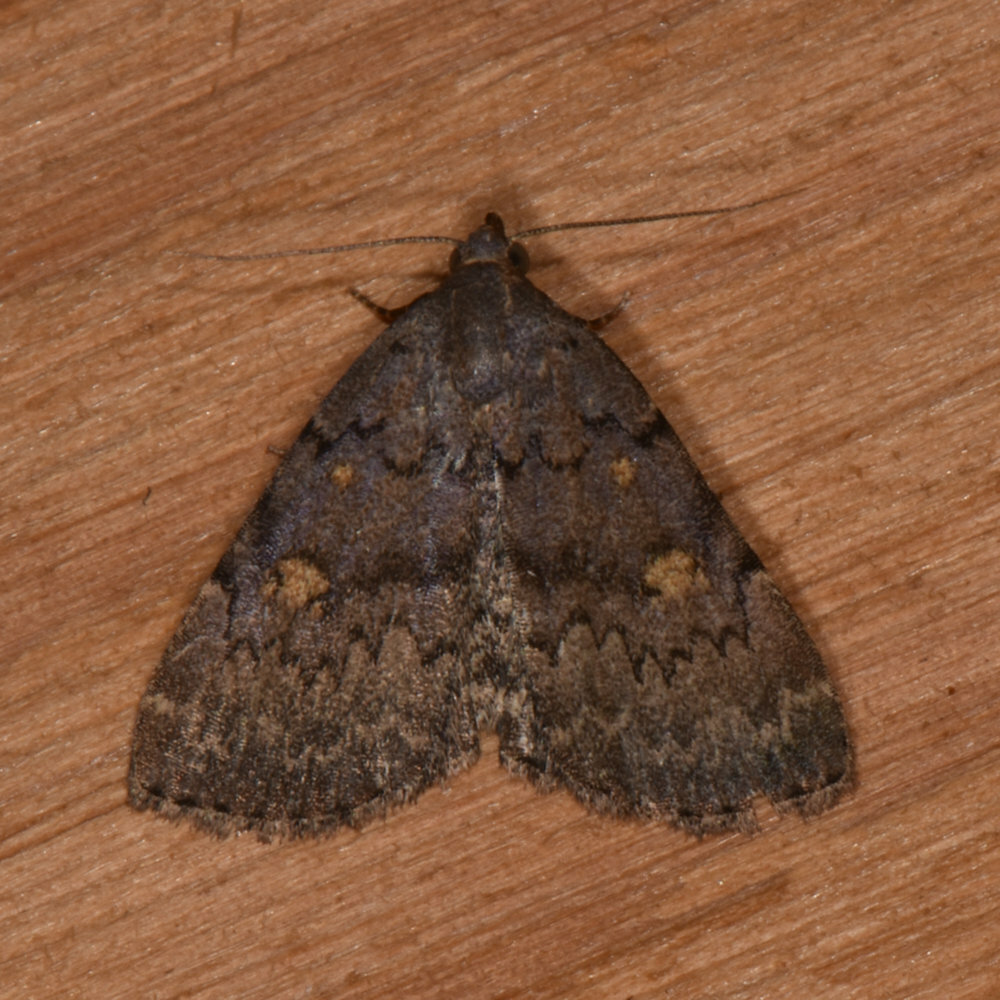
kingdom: Animalia
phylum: Arthropoda
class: Insecta
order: Lepidoptera
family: Erebidae
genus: Idia
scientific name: Idia aemula
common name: Common idia moth
